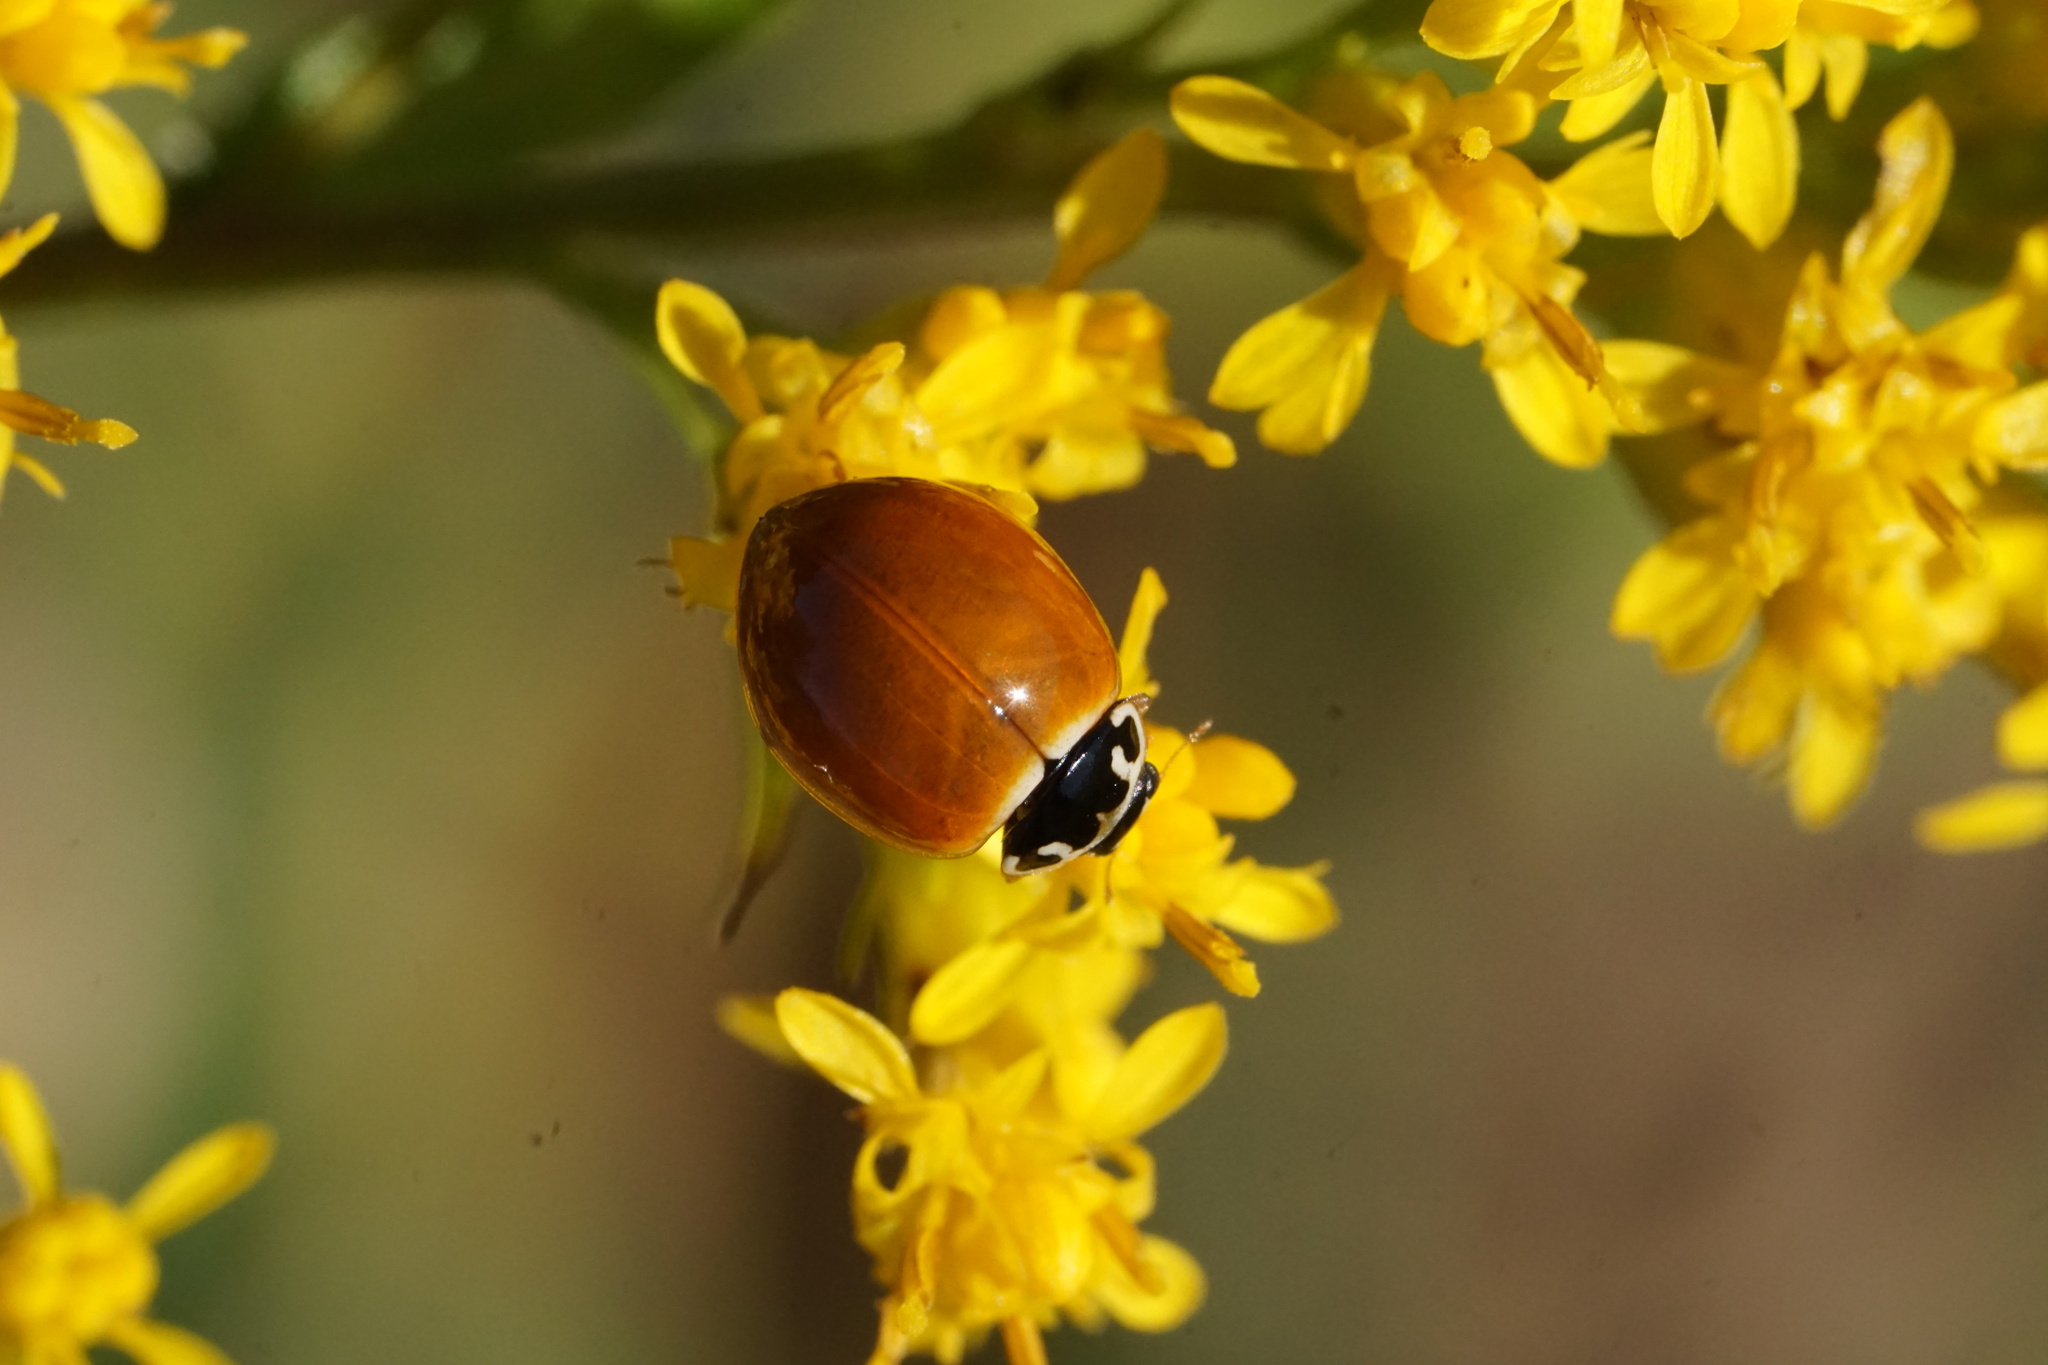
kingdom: Animalia
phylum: Arthropoda
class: Insecta
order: Coleoptera
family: Coccinellidae
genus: Cycloneda
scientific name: Cycloneda munda
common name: Polished lady beetle
